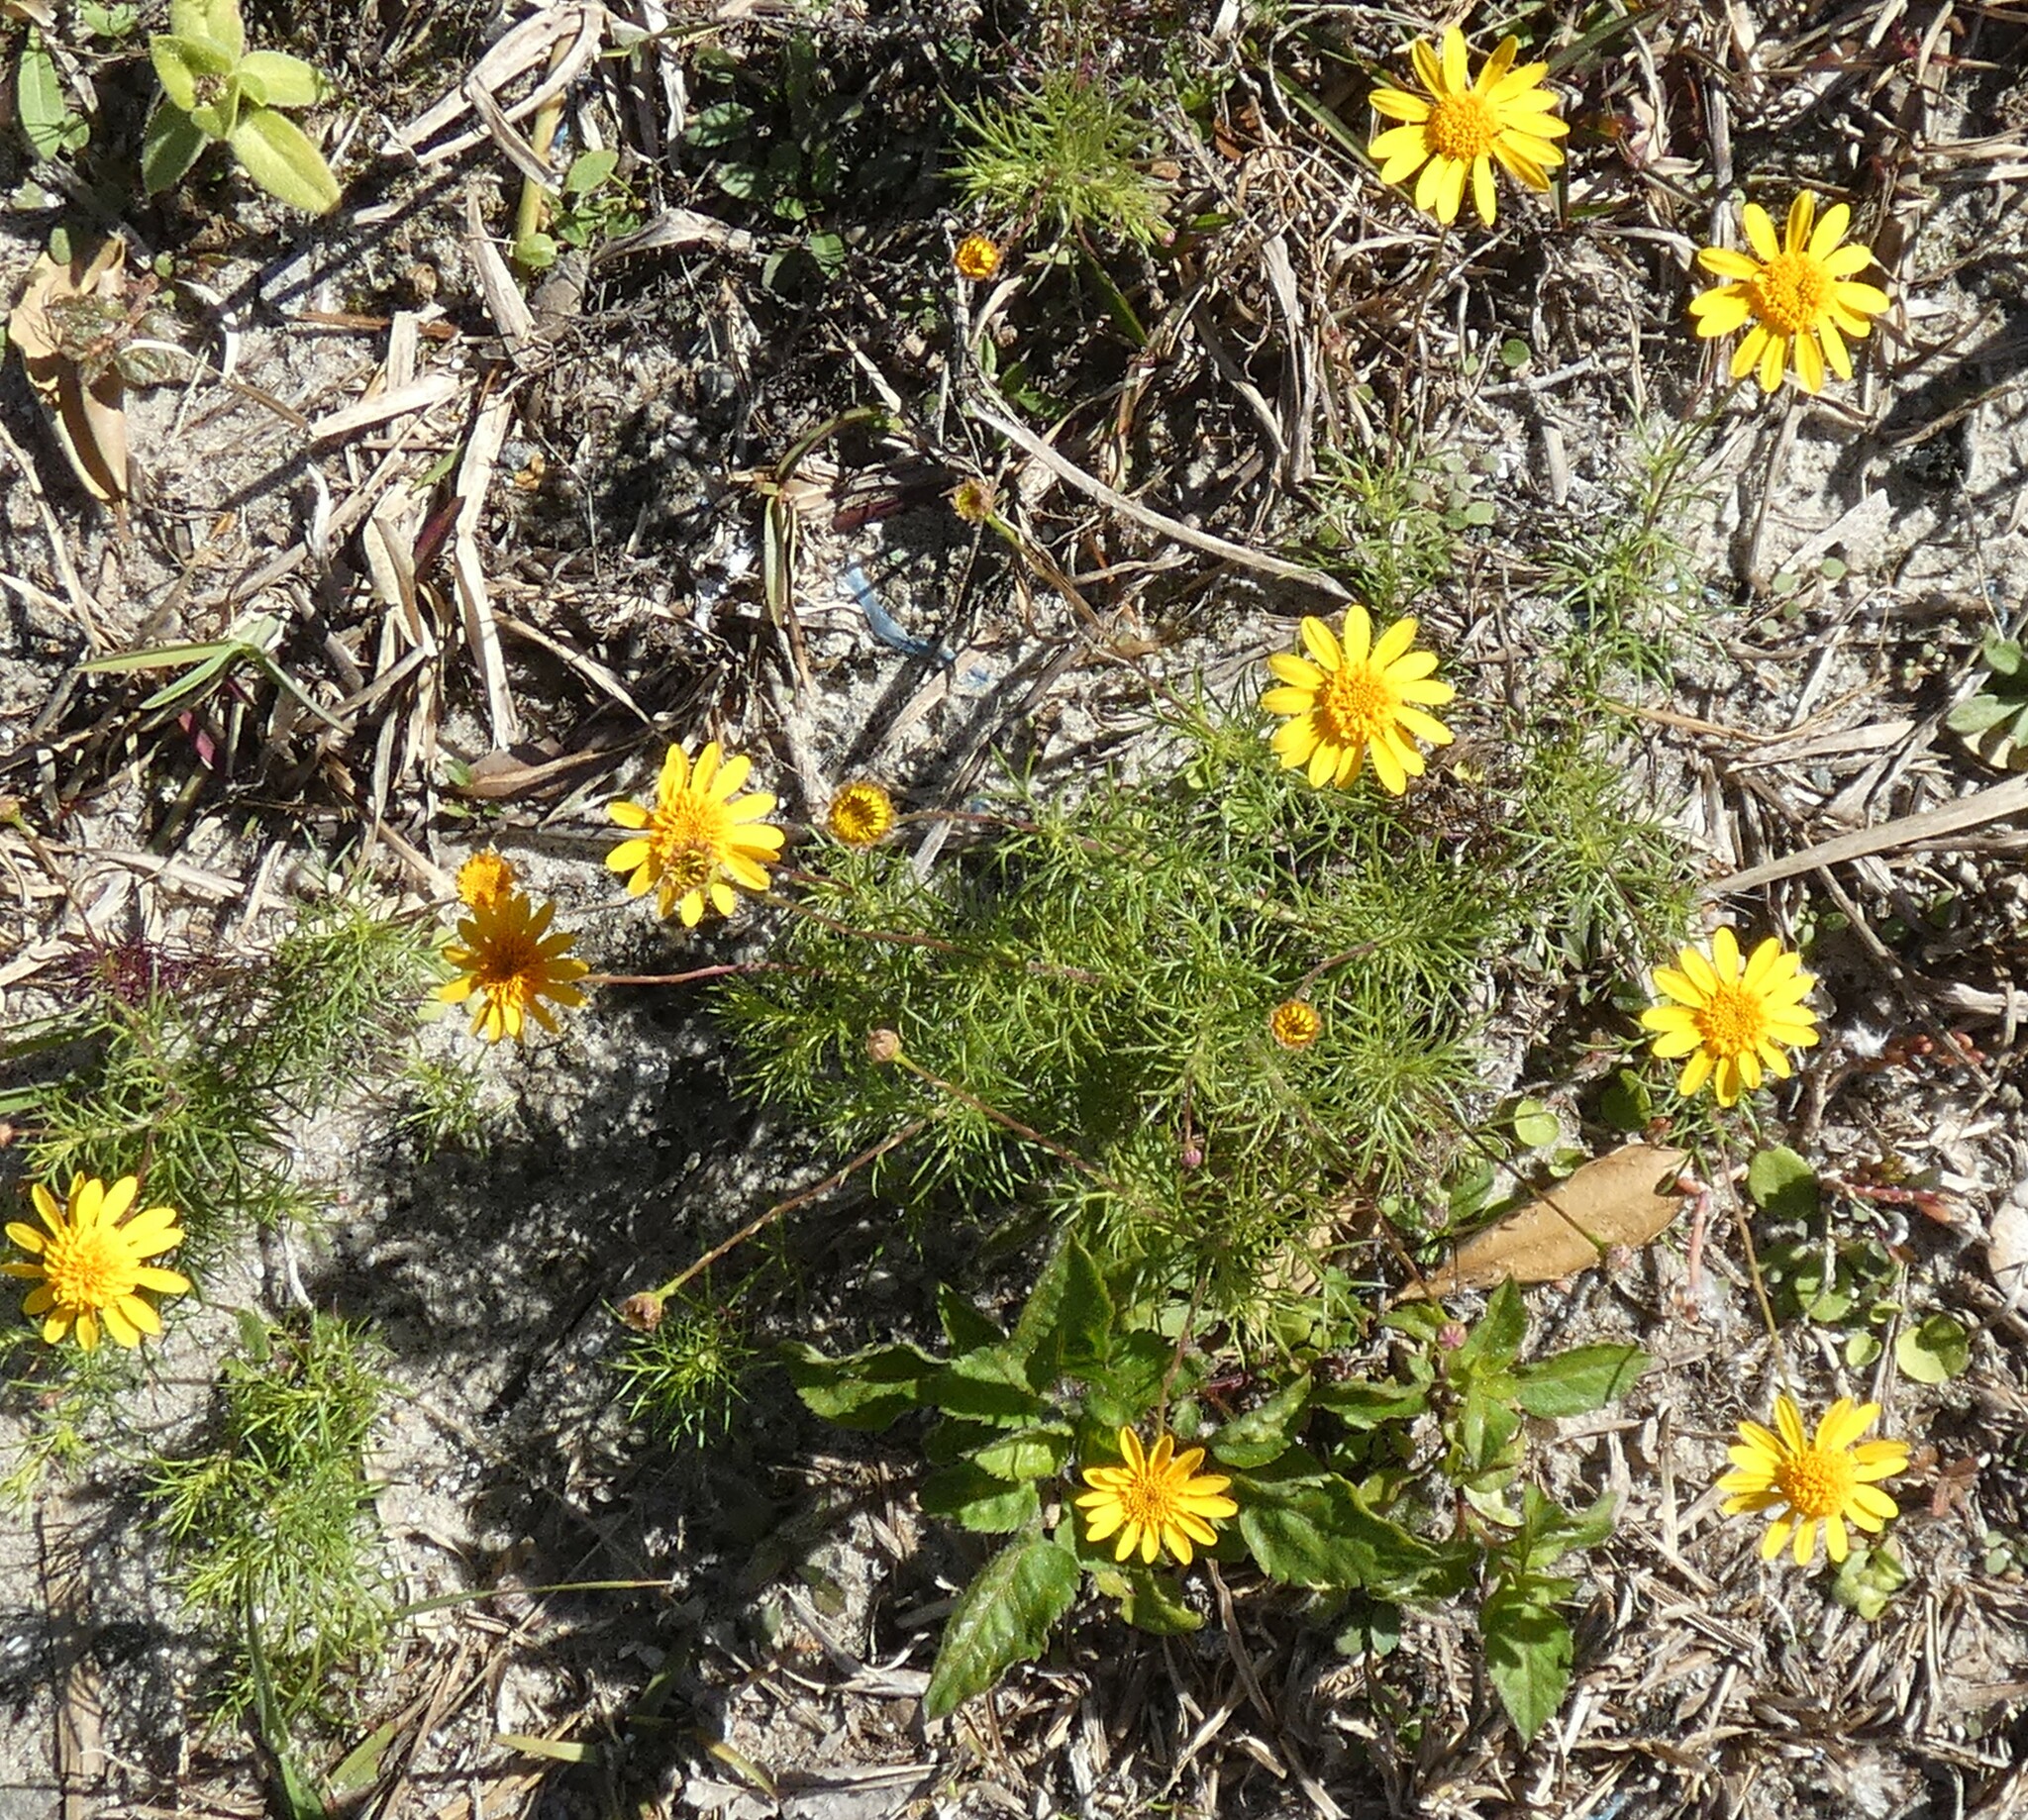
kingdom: Plantae
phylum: Tracheophyta
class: Magnoliopsida
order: Asterales
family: Asteraceae
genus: Thymophylla
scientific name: Thymophylla tenuiloba
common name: Dahlberg's daisy
